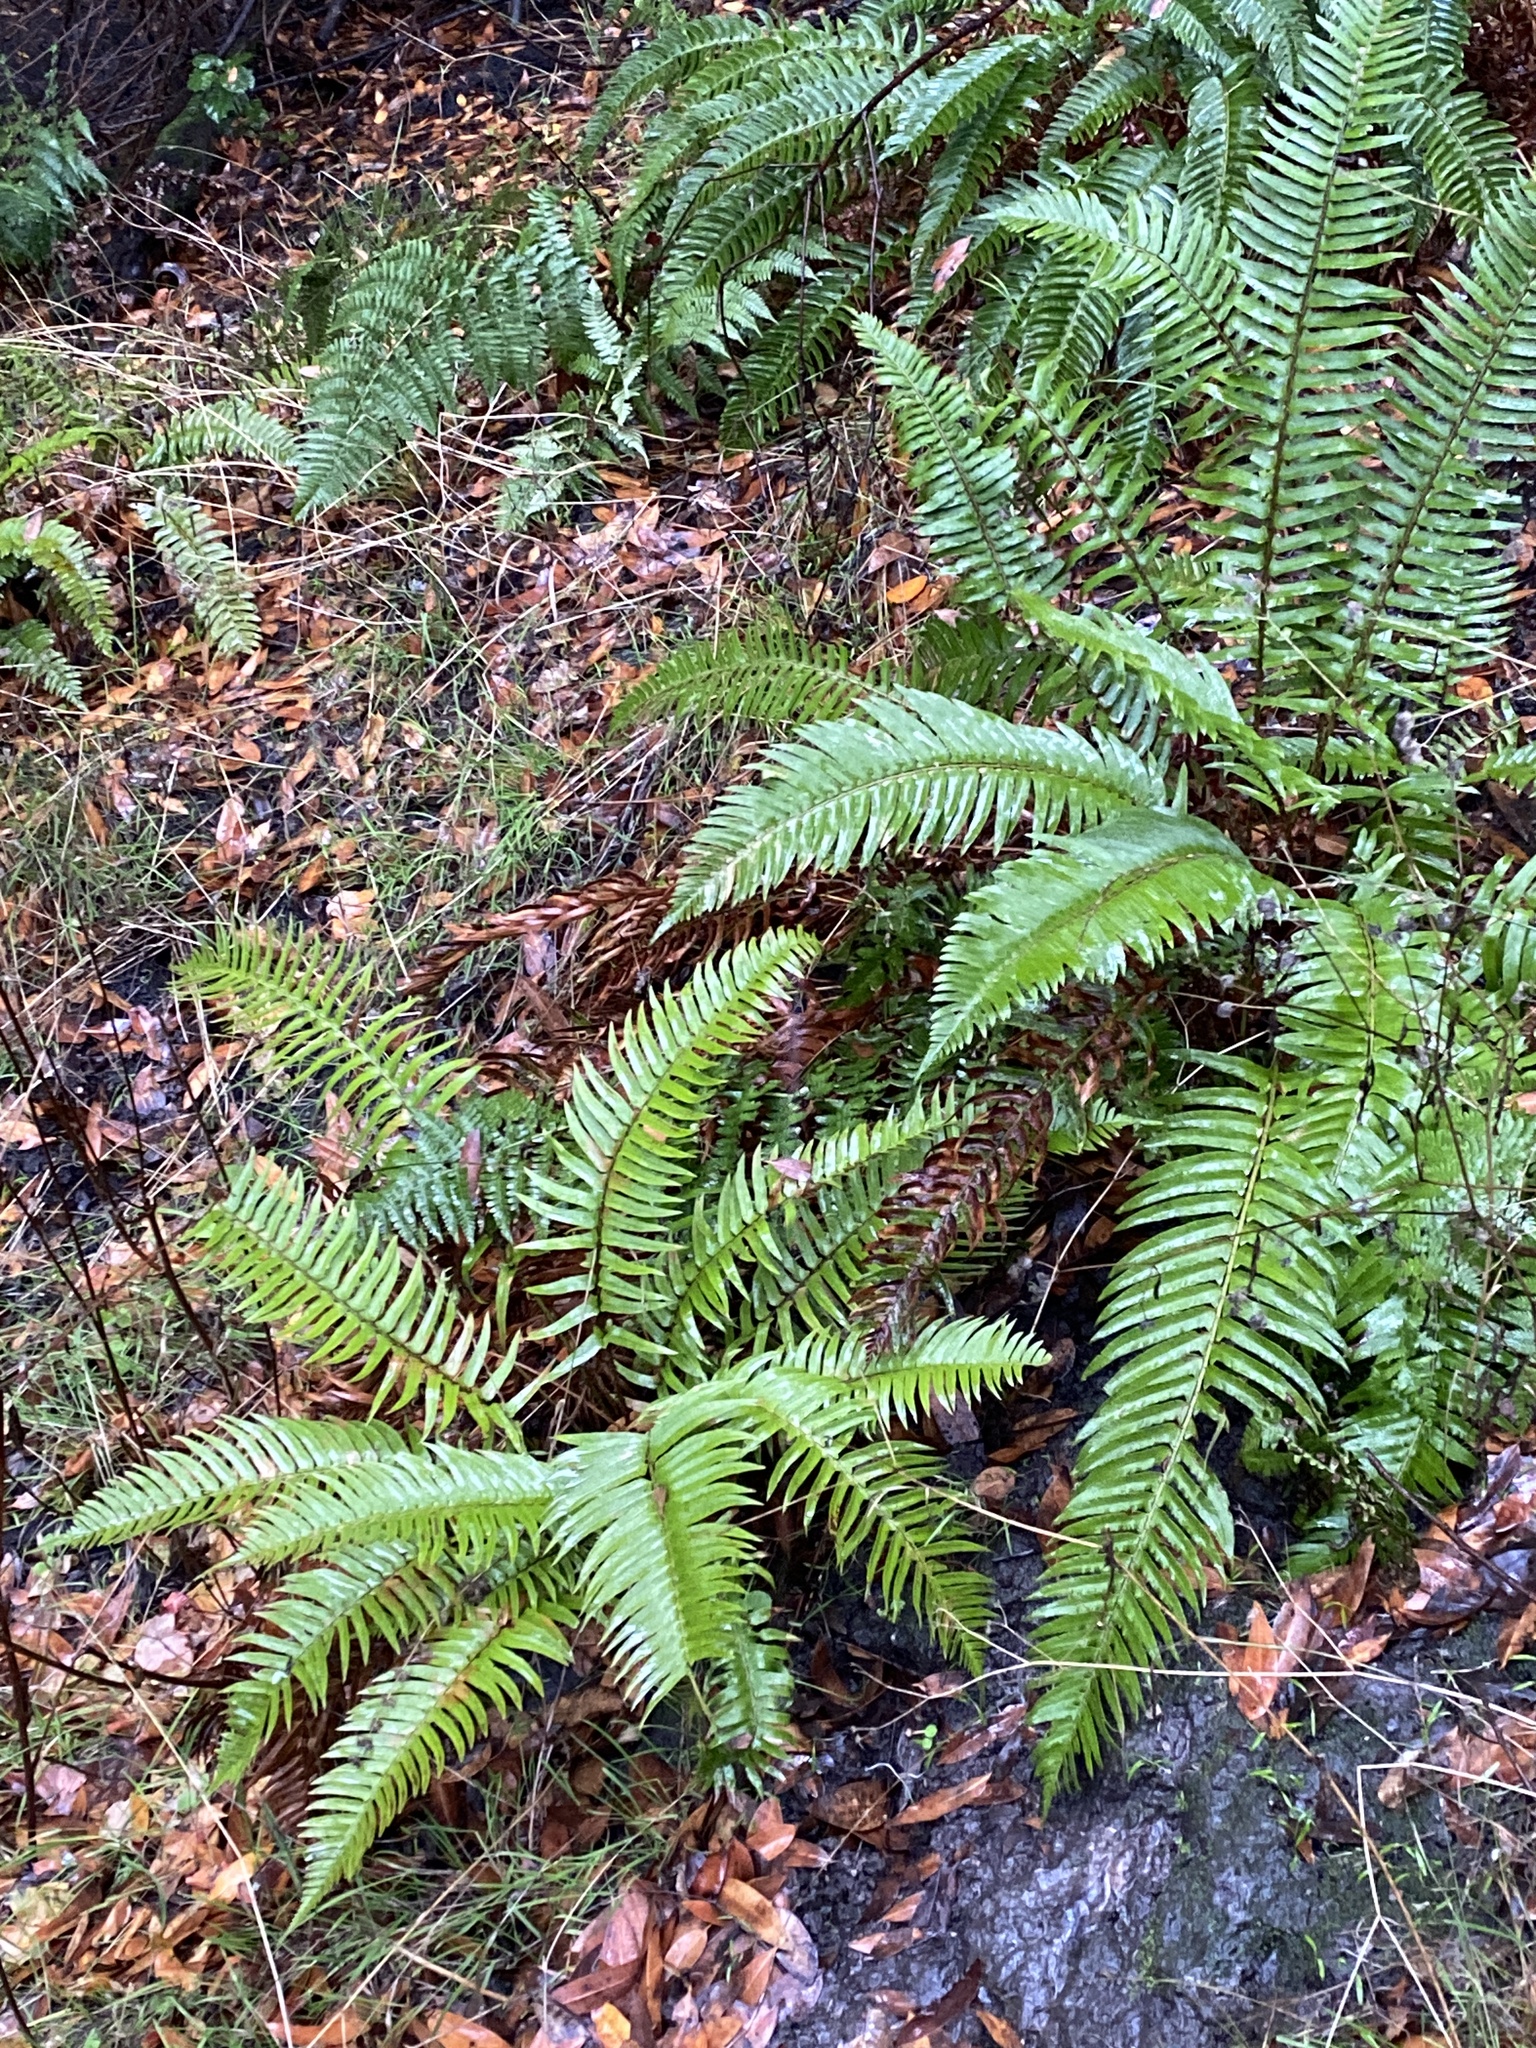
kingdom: Plantae
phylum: Tracheophyta
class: Polypodiopsida
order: Polypodiales
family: Dryopteridaceae
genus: Polystichum
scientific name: Polystichum munitum
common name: Western sword-fern
